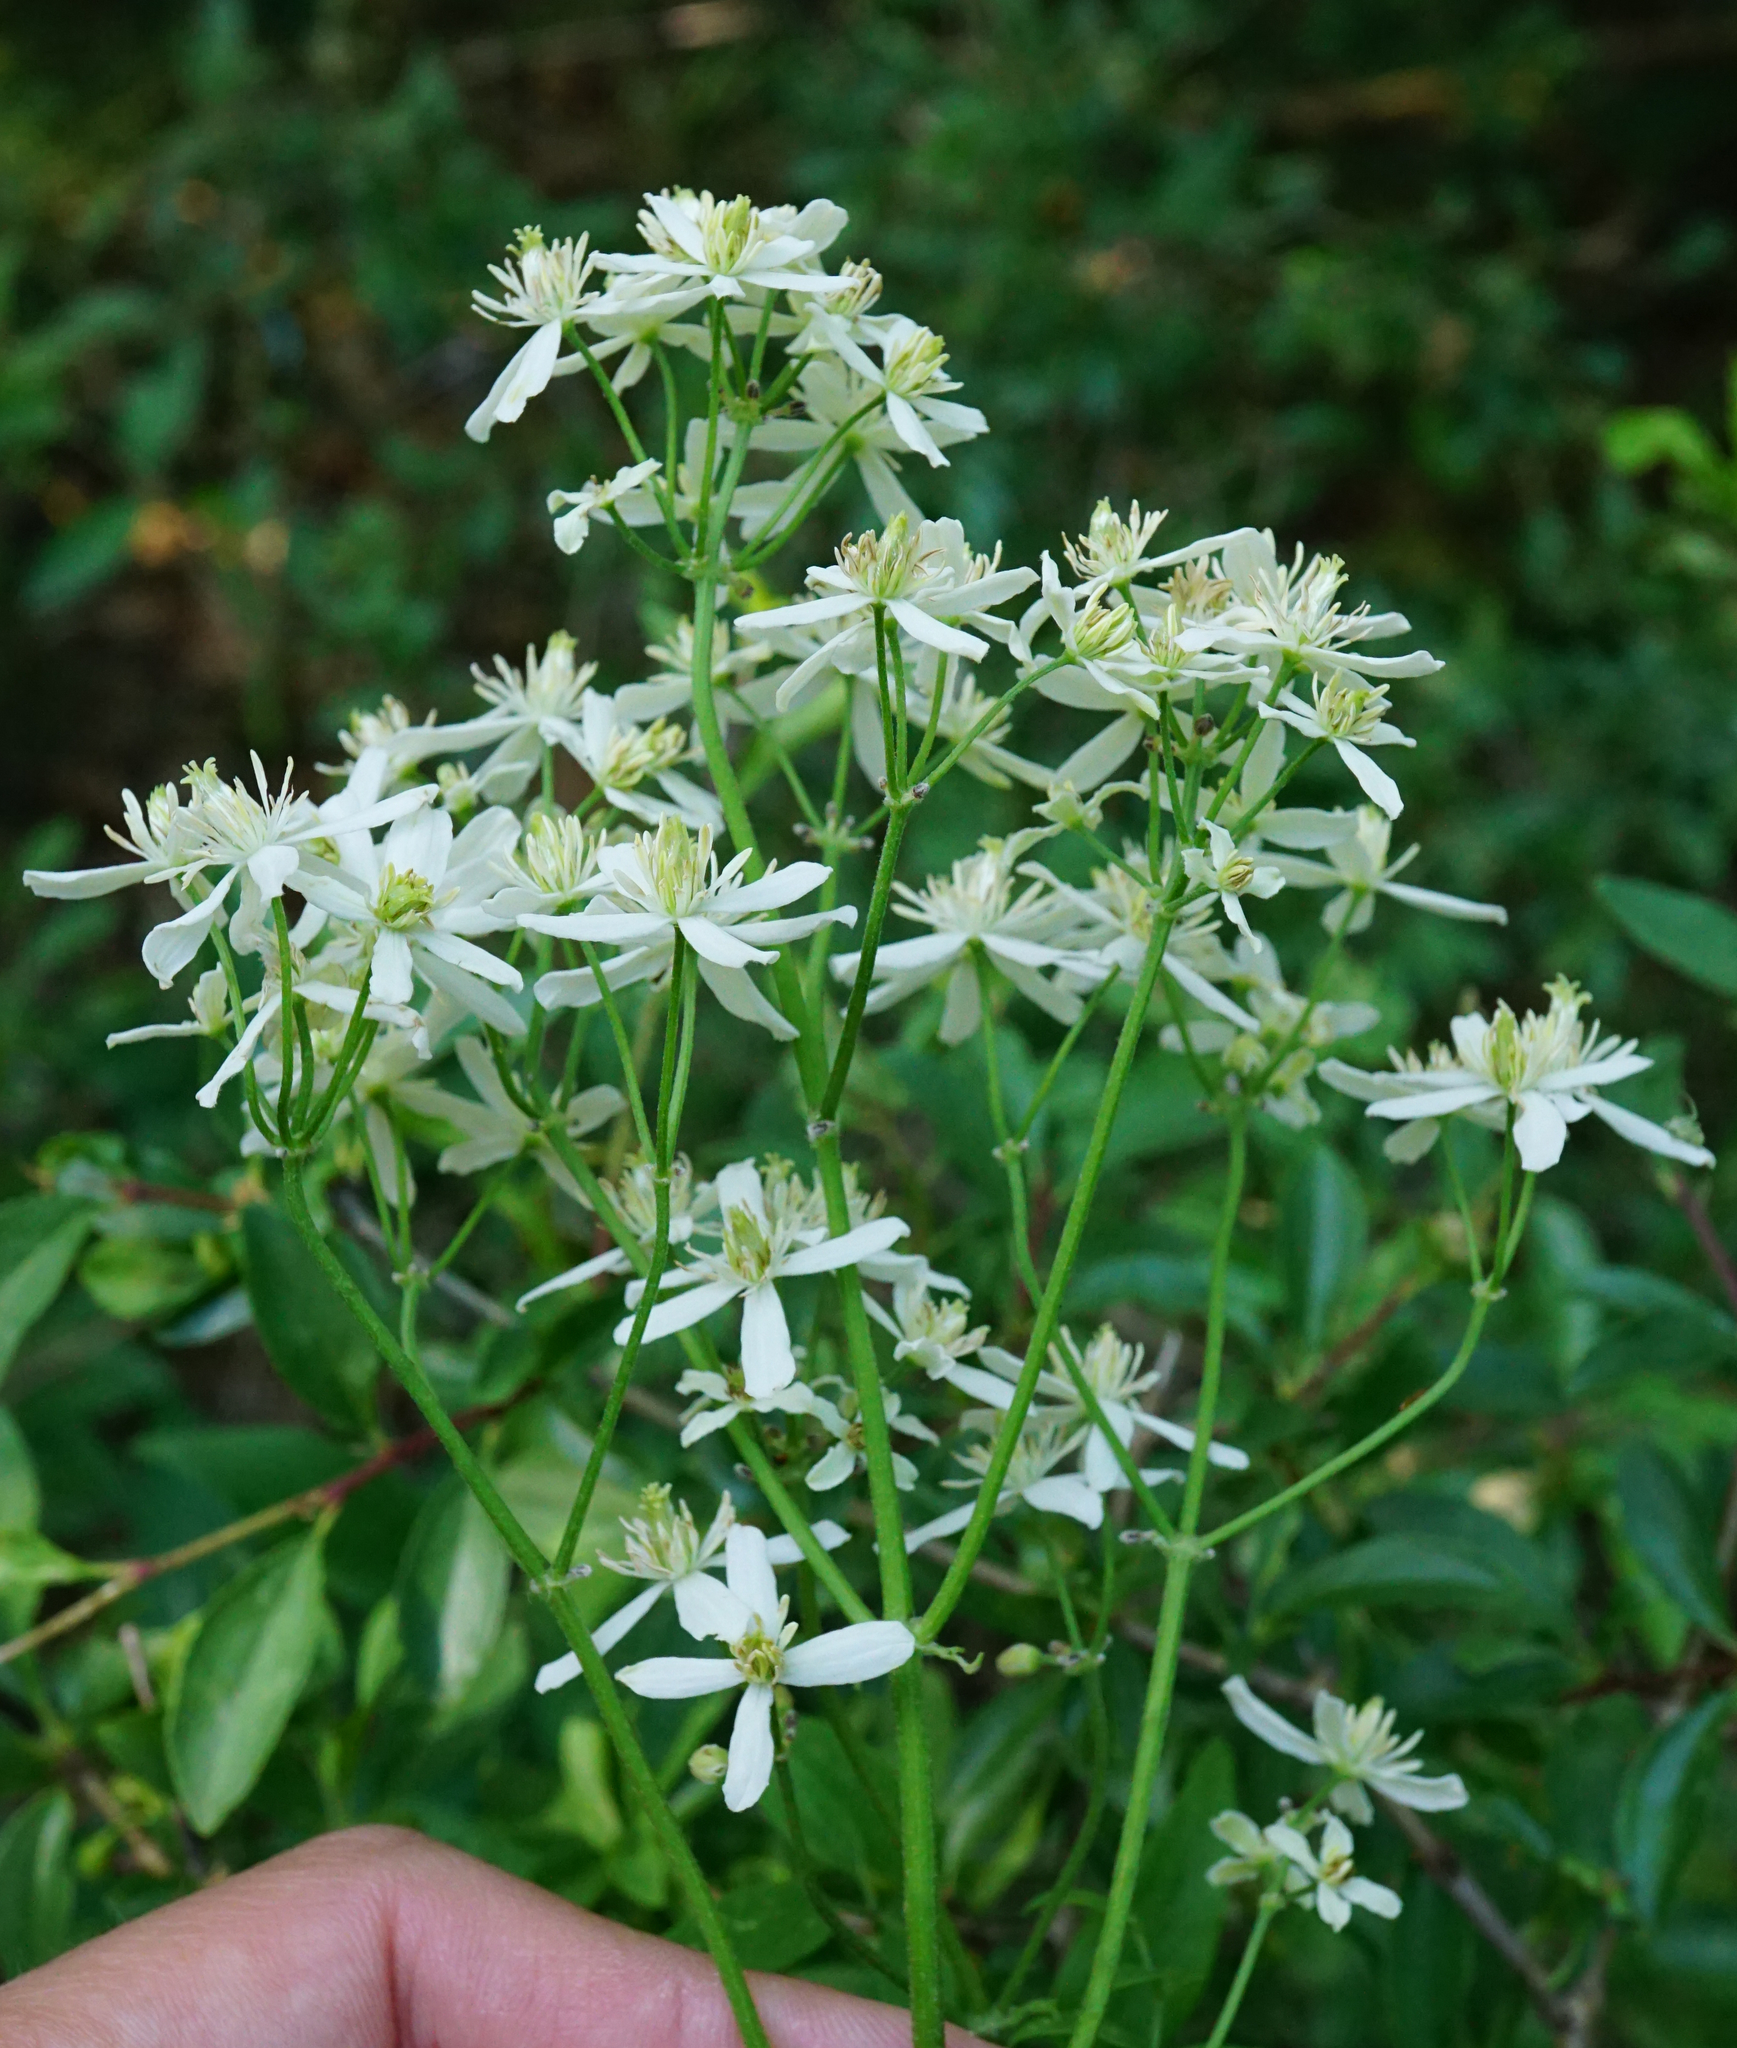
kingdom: Plantae
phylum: Tracheophyta
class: Magnoliopsida
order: Ranunculales
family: Ranunculaceae
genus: Clematis
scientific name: Clematis recta
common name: Ground clematis
